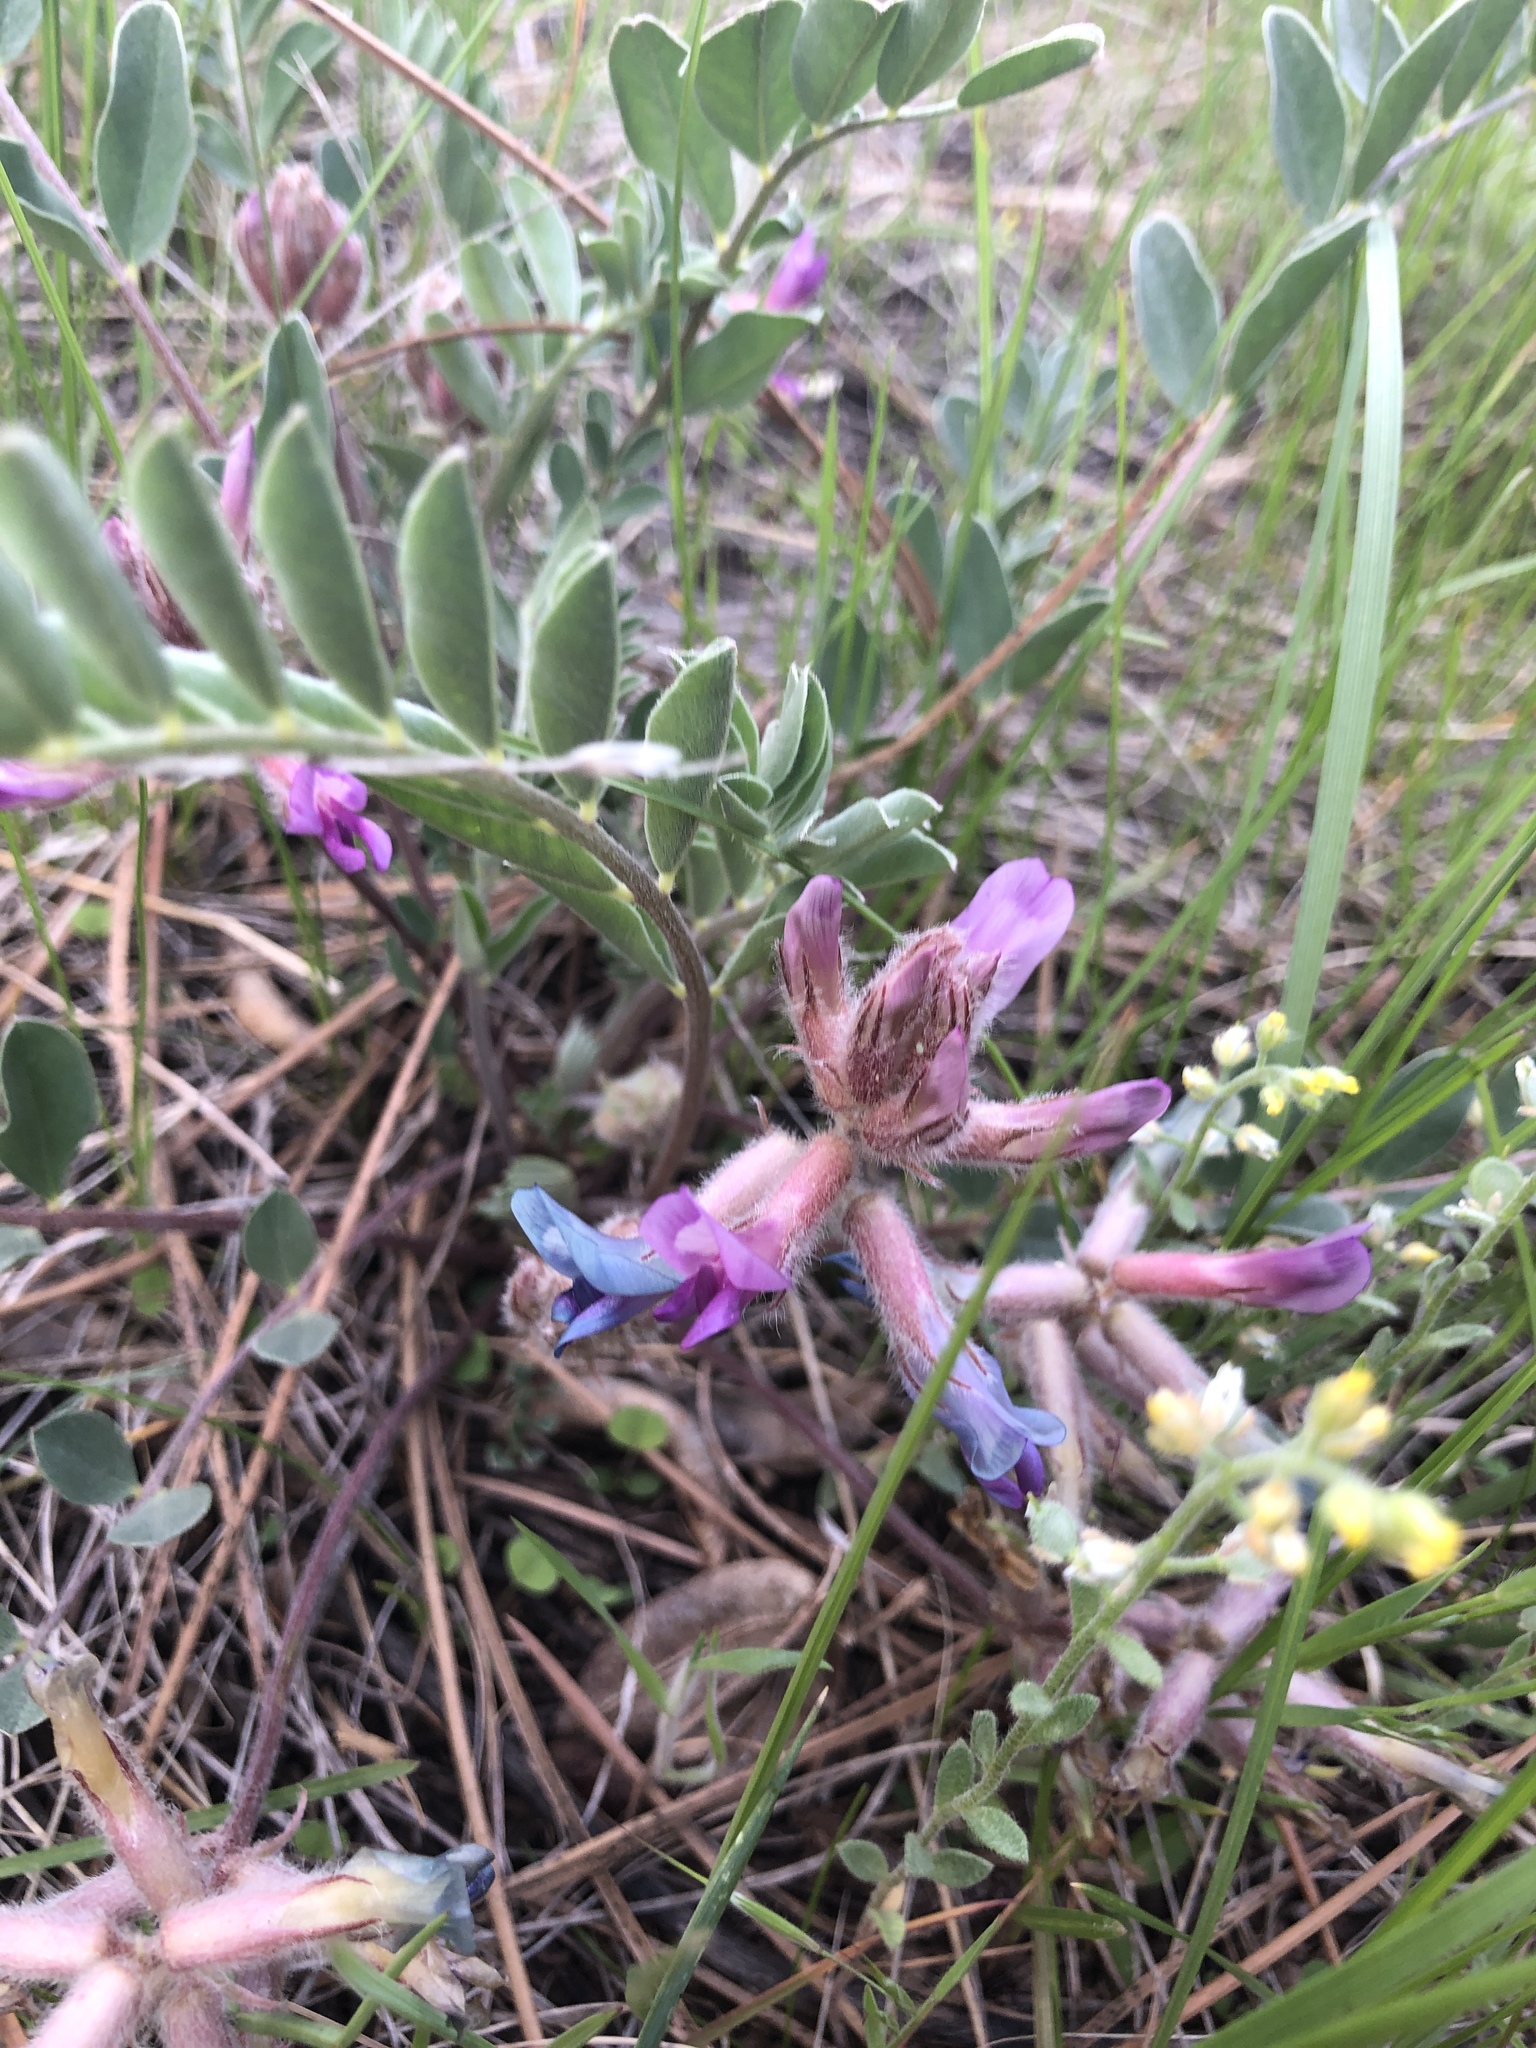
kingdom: Plantae
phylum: Tracheophyta
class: Magnoliopsida
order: Fabales
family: Fabaceae
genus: Astragalus
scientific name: Astragalus shortianus
